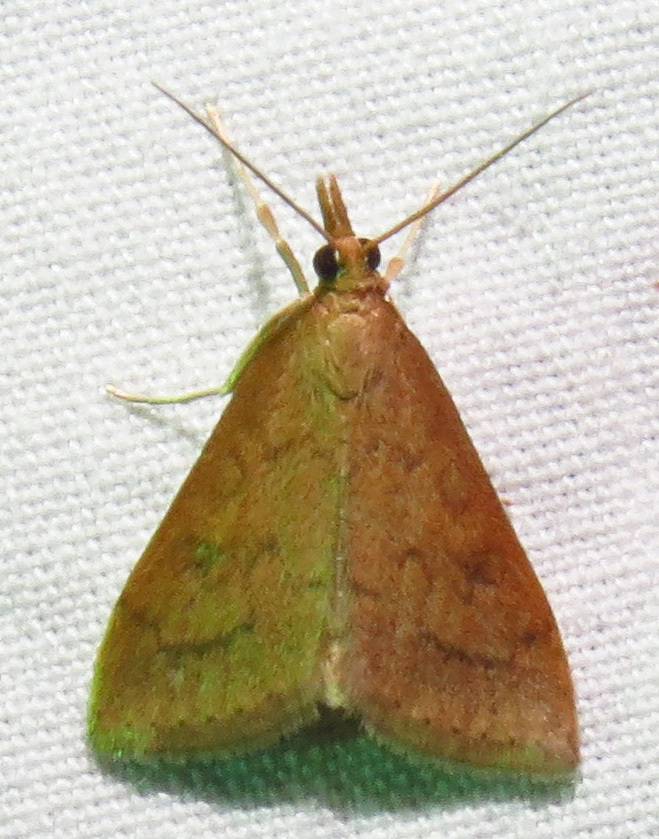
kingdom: Animalia
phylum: Arthropoda
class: Insecta
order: Lepidoptera
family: Crambidae
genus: Udea
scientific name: Udea rubigalis
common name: Celery leaftier moth
